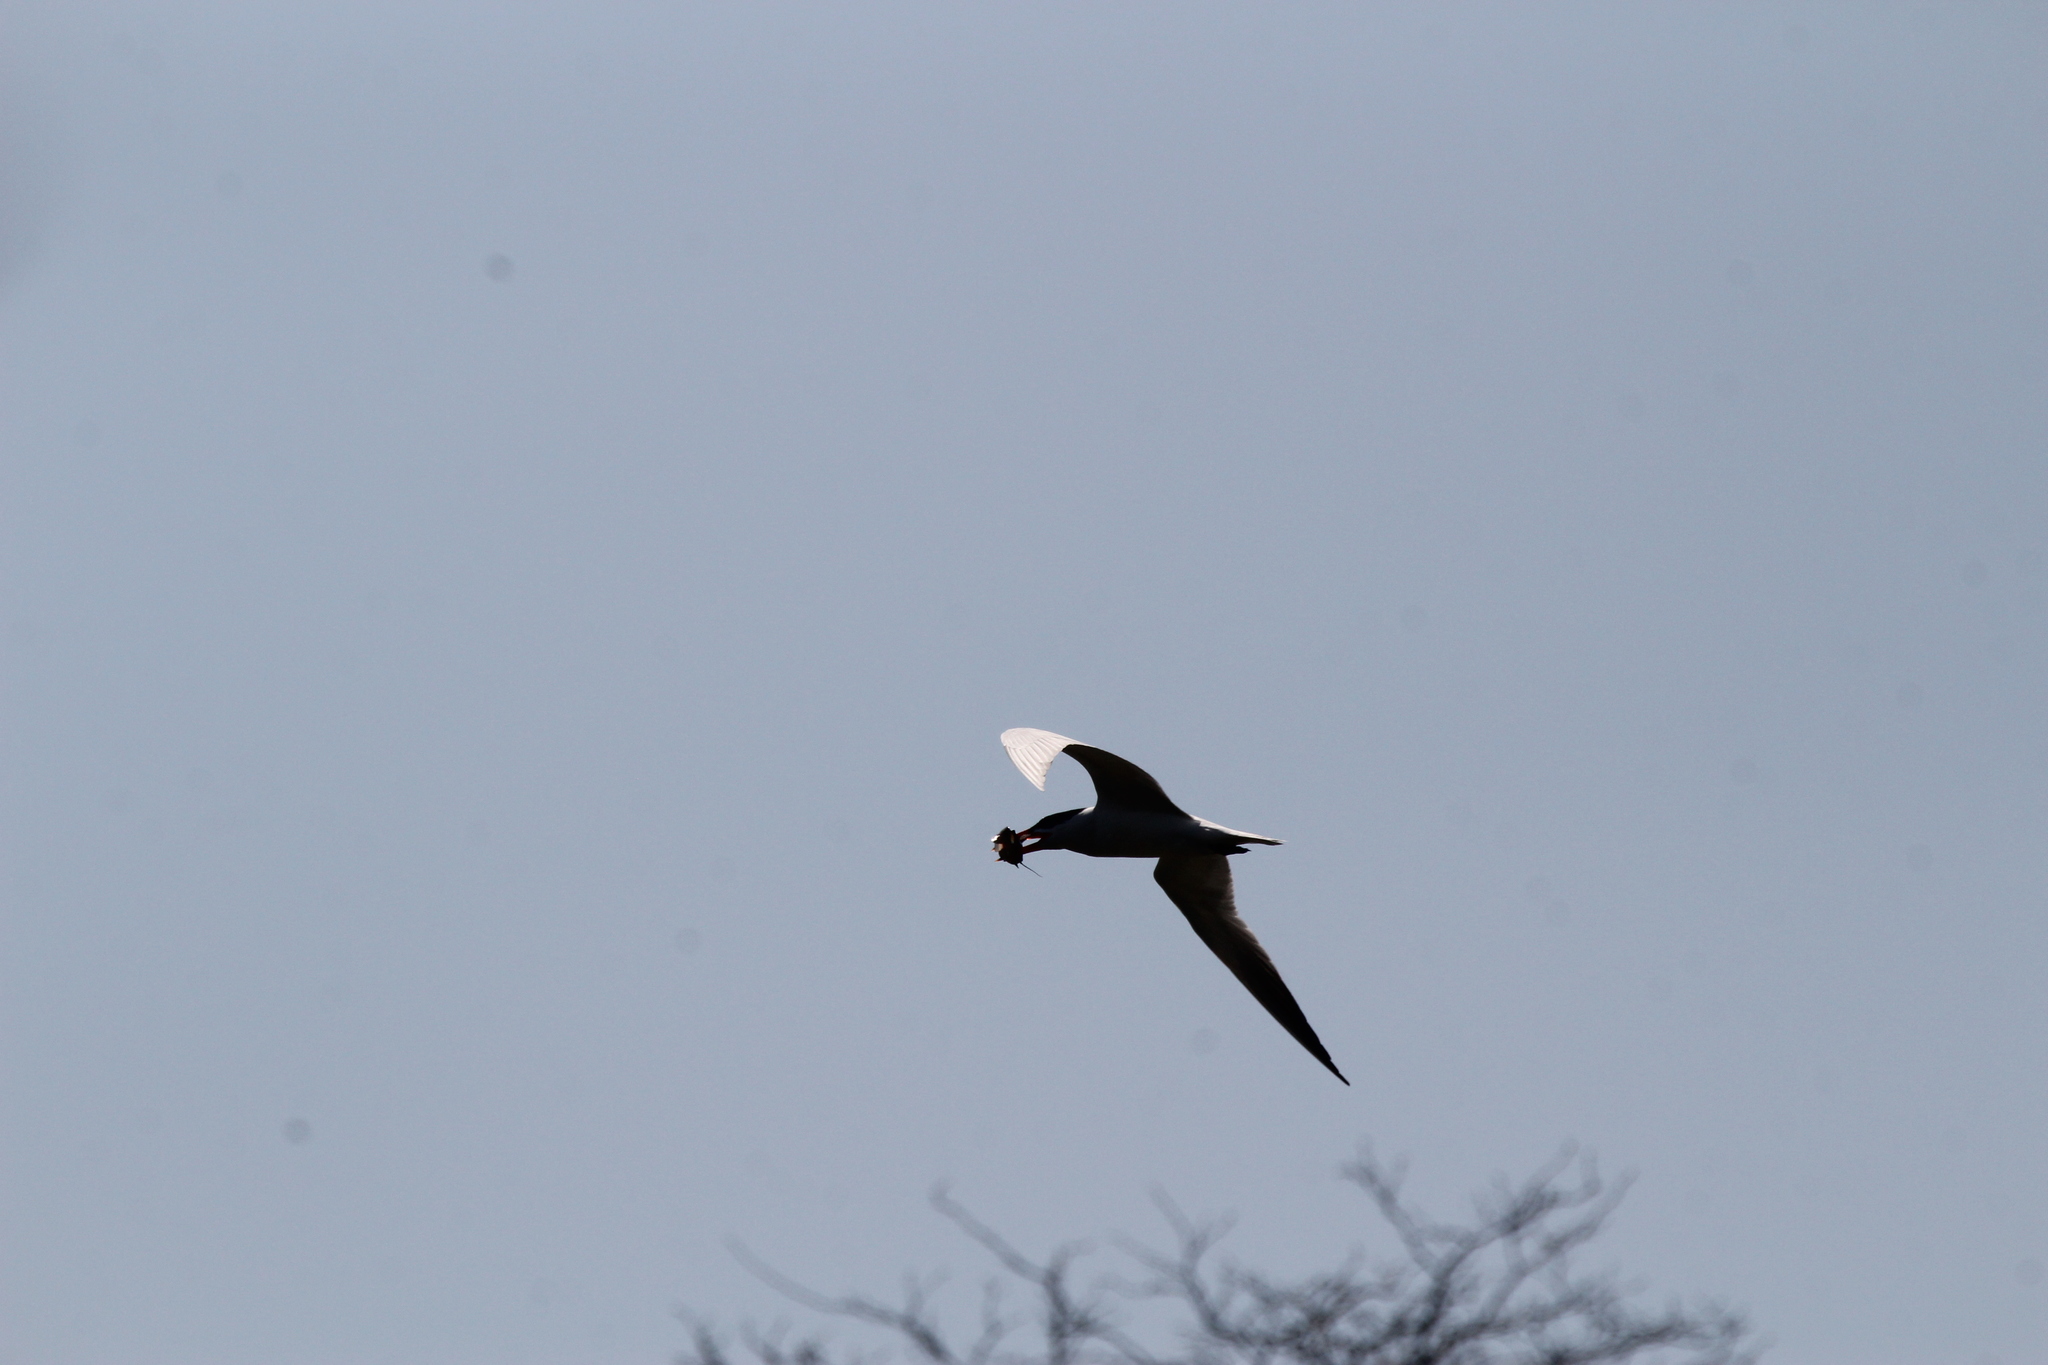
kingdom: Animalia
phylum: Chordata
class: Aves
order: Charadriiformes
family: Laridae
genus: Hydroprogne
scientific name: Hydroprogne caspia
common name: Caspian tern
